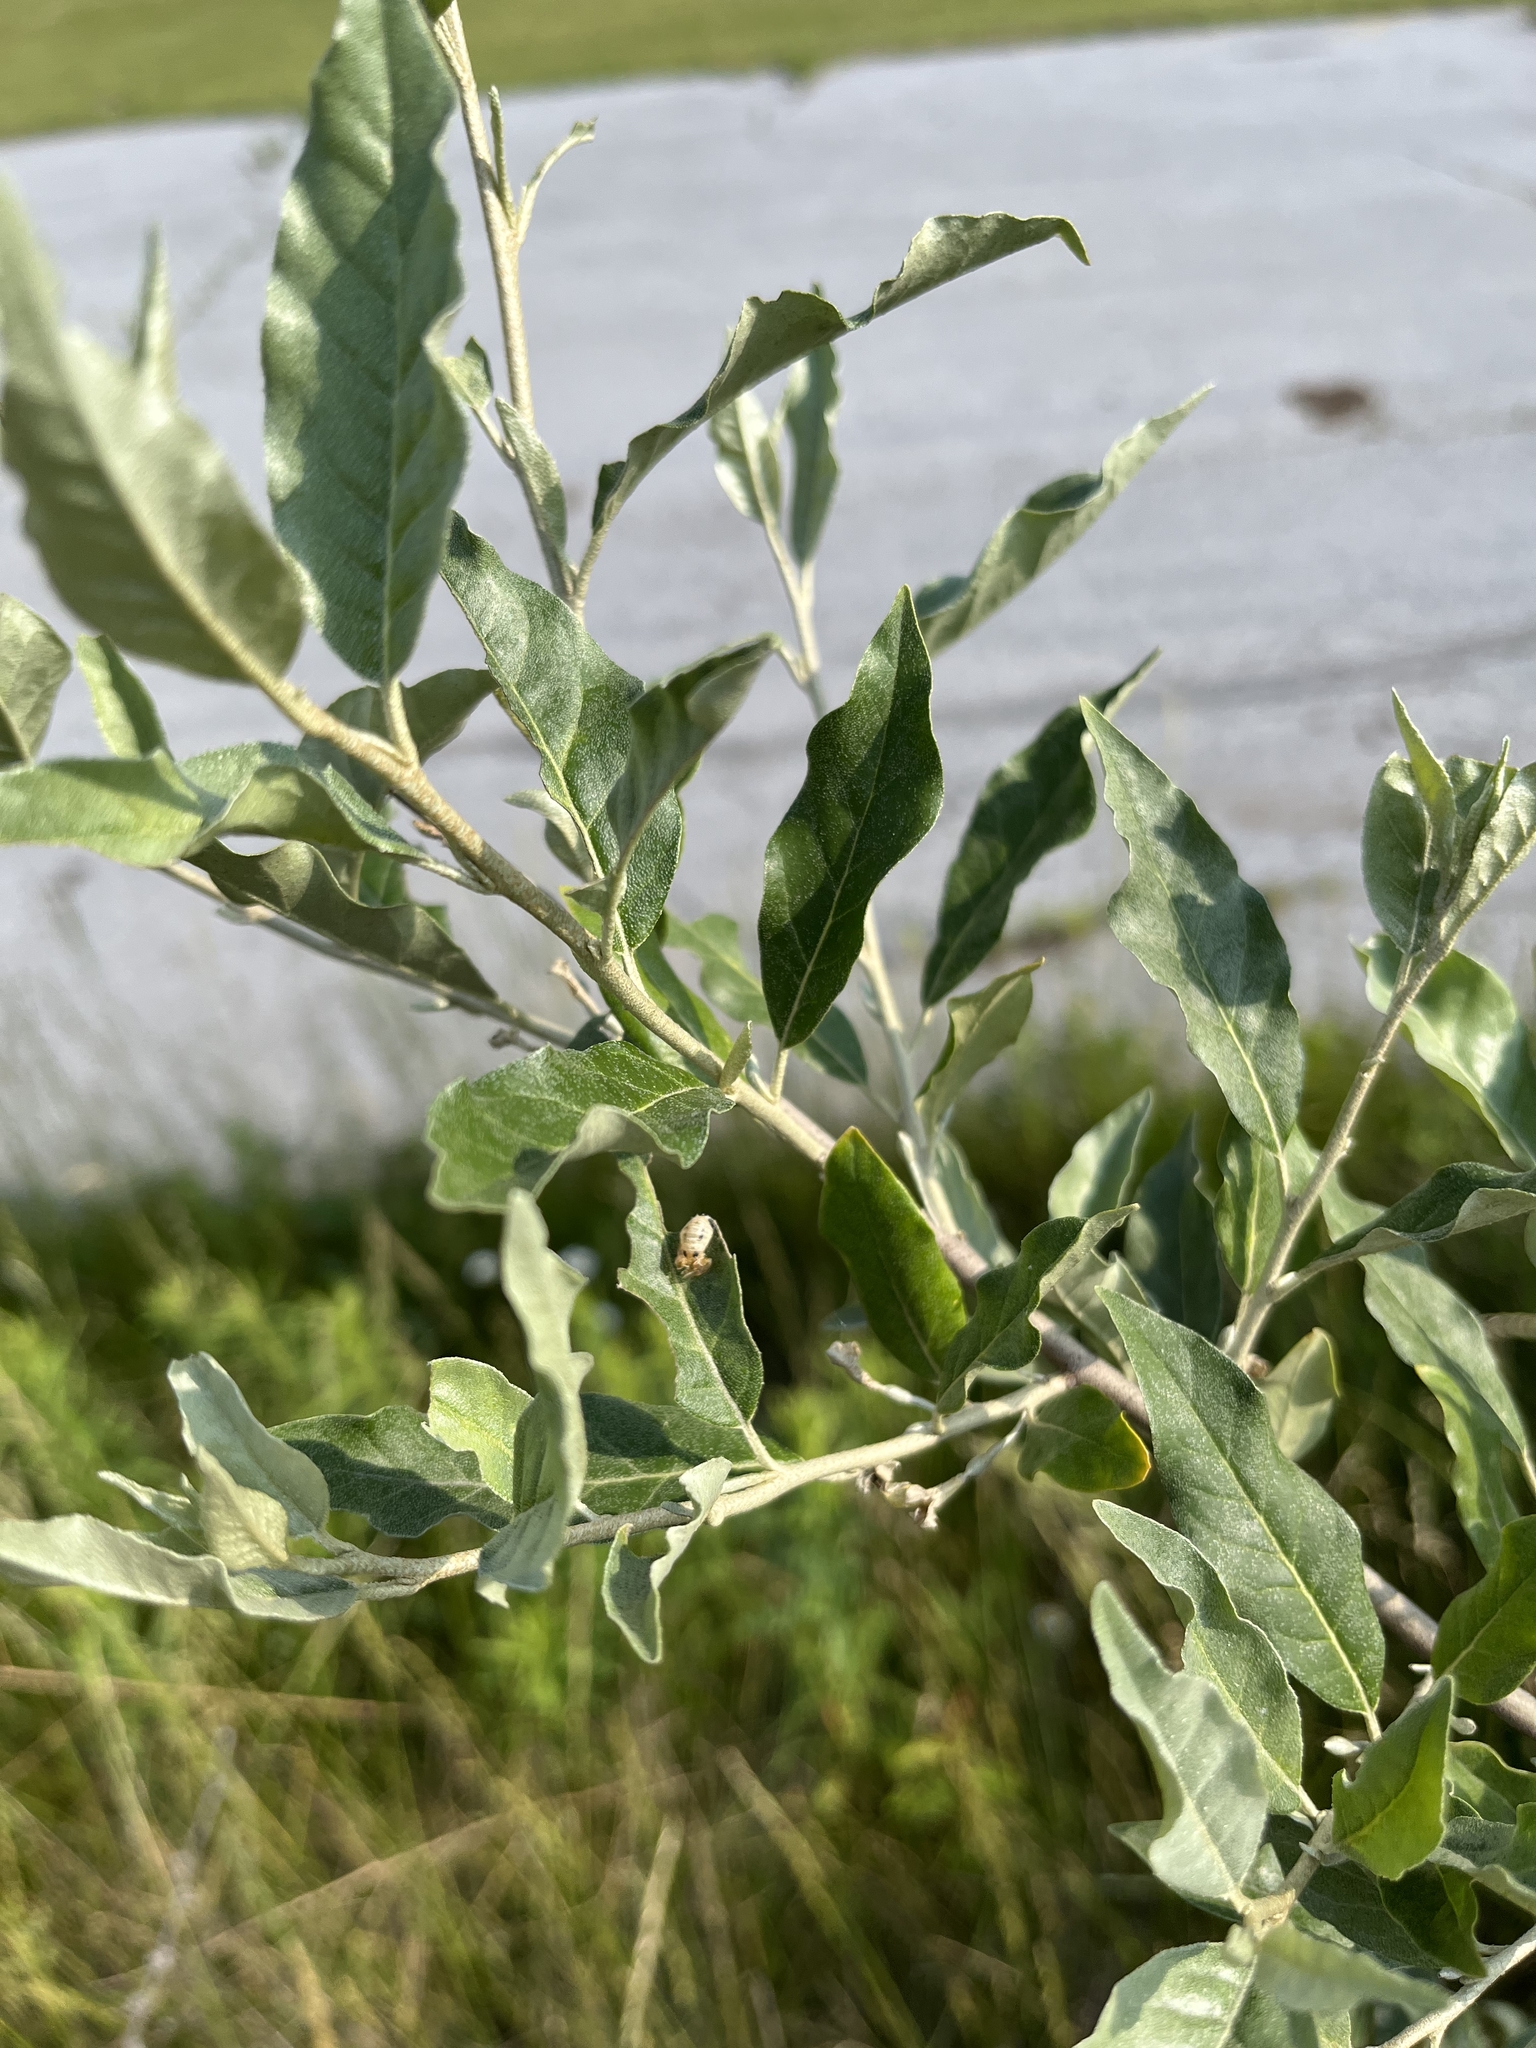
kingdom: Plantae
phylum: Tracheophyta
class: Magnoliopsida
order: Rosales
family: Elaeagnaceae
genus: Elaeagnus
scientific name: Elaeagnus umbellata
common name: Autumn olive
